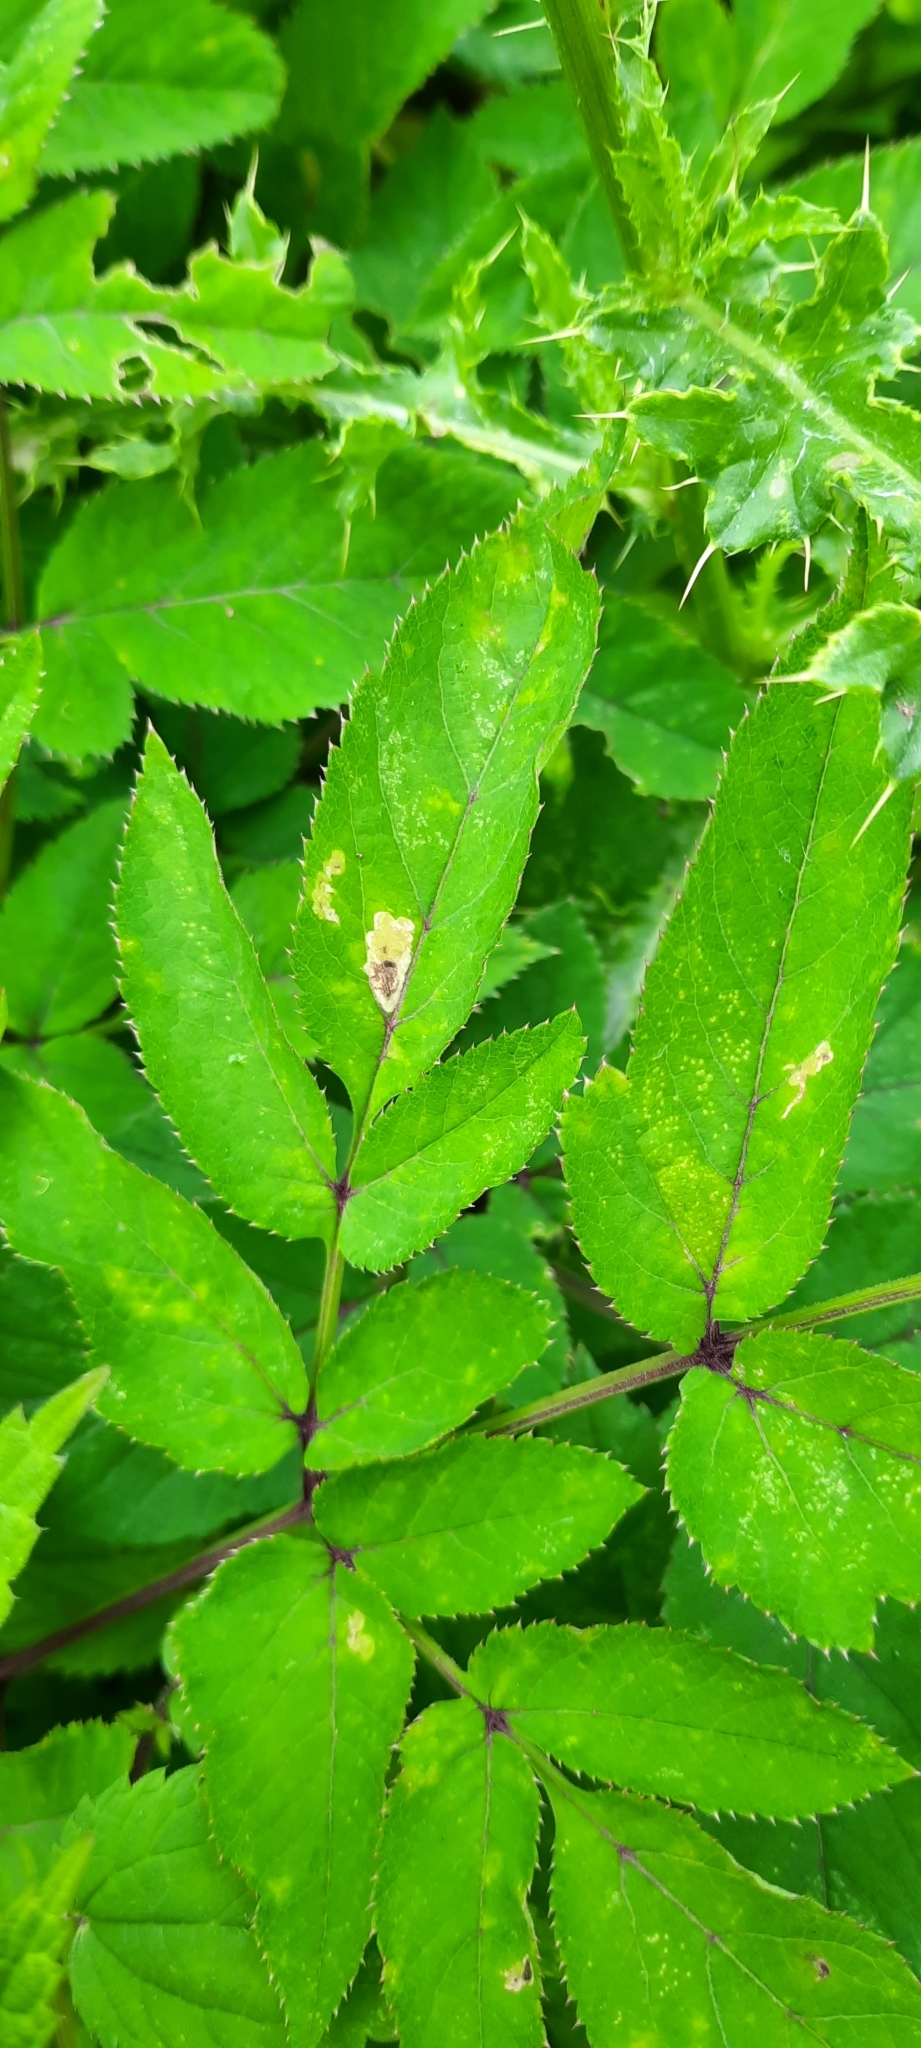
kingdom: Plantae
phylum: Tracheophyta
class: Magnoliopsida
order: Apiales
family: Apiaceae
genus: Angelica
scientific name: Angelica sylvestris
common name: Wild angelica
